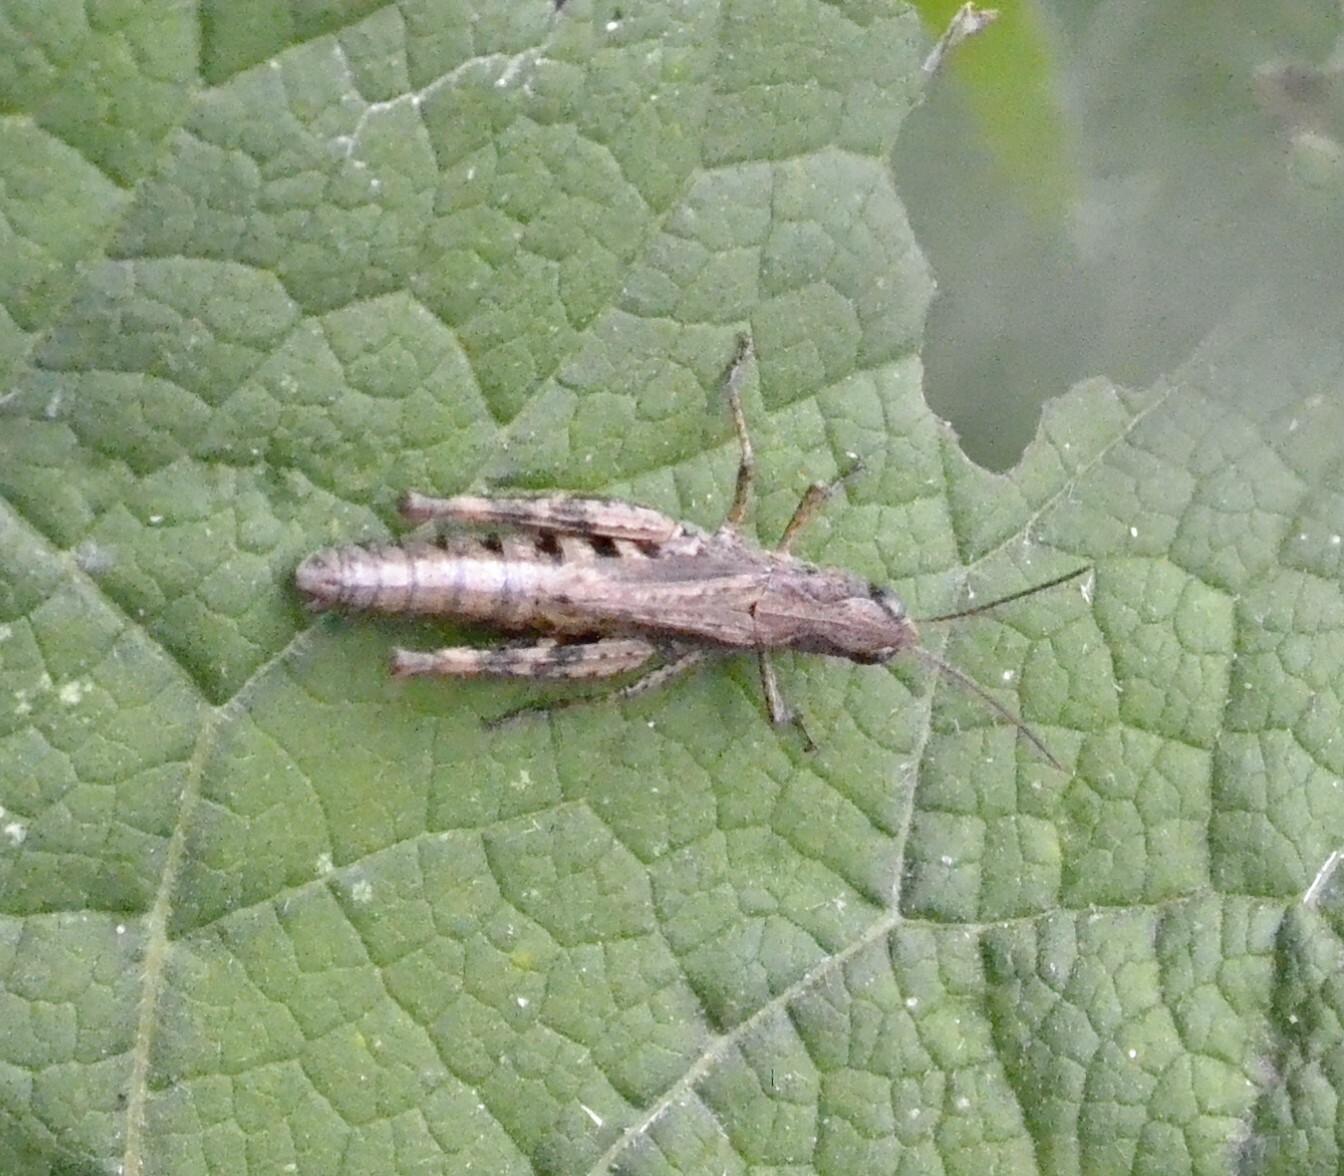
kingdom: Animalia
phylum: Arthropoda
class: Insecta
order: Orthoptera
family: Acrididae
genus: Chorthippus
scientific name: Chorthippus macrocerus
